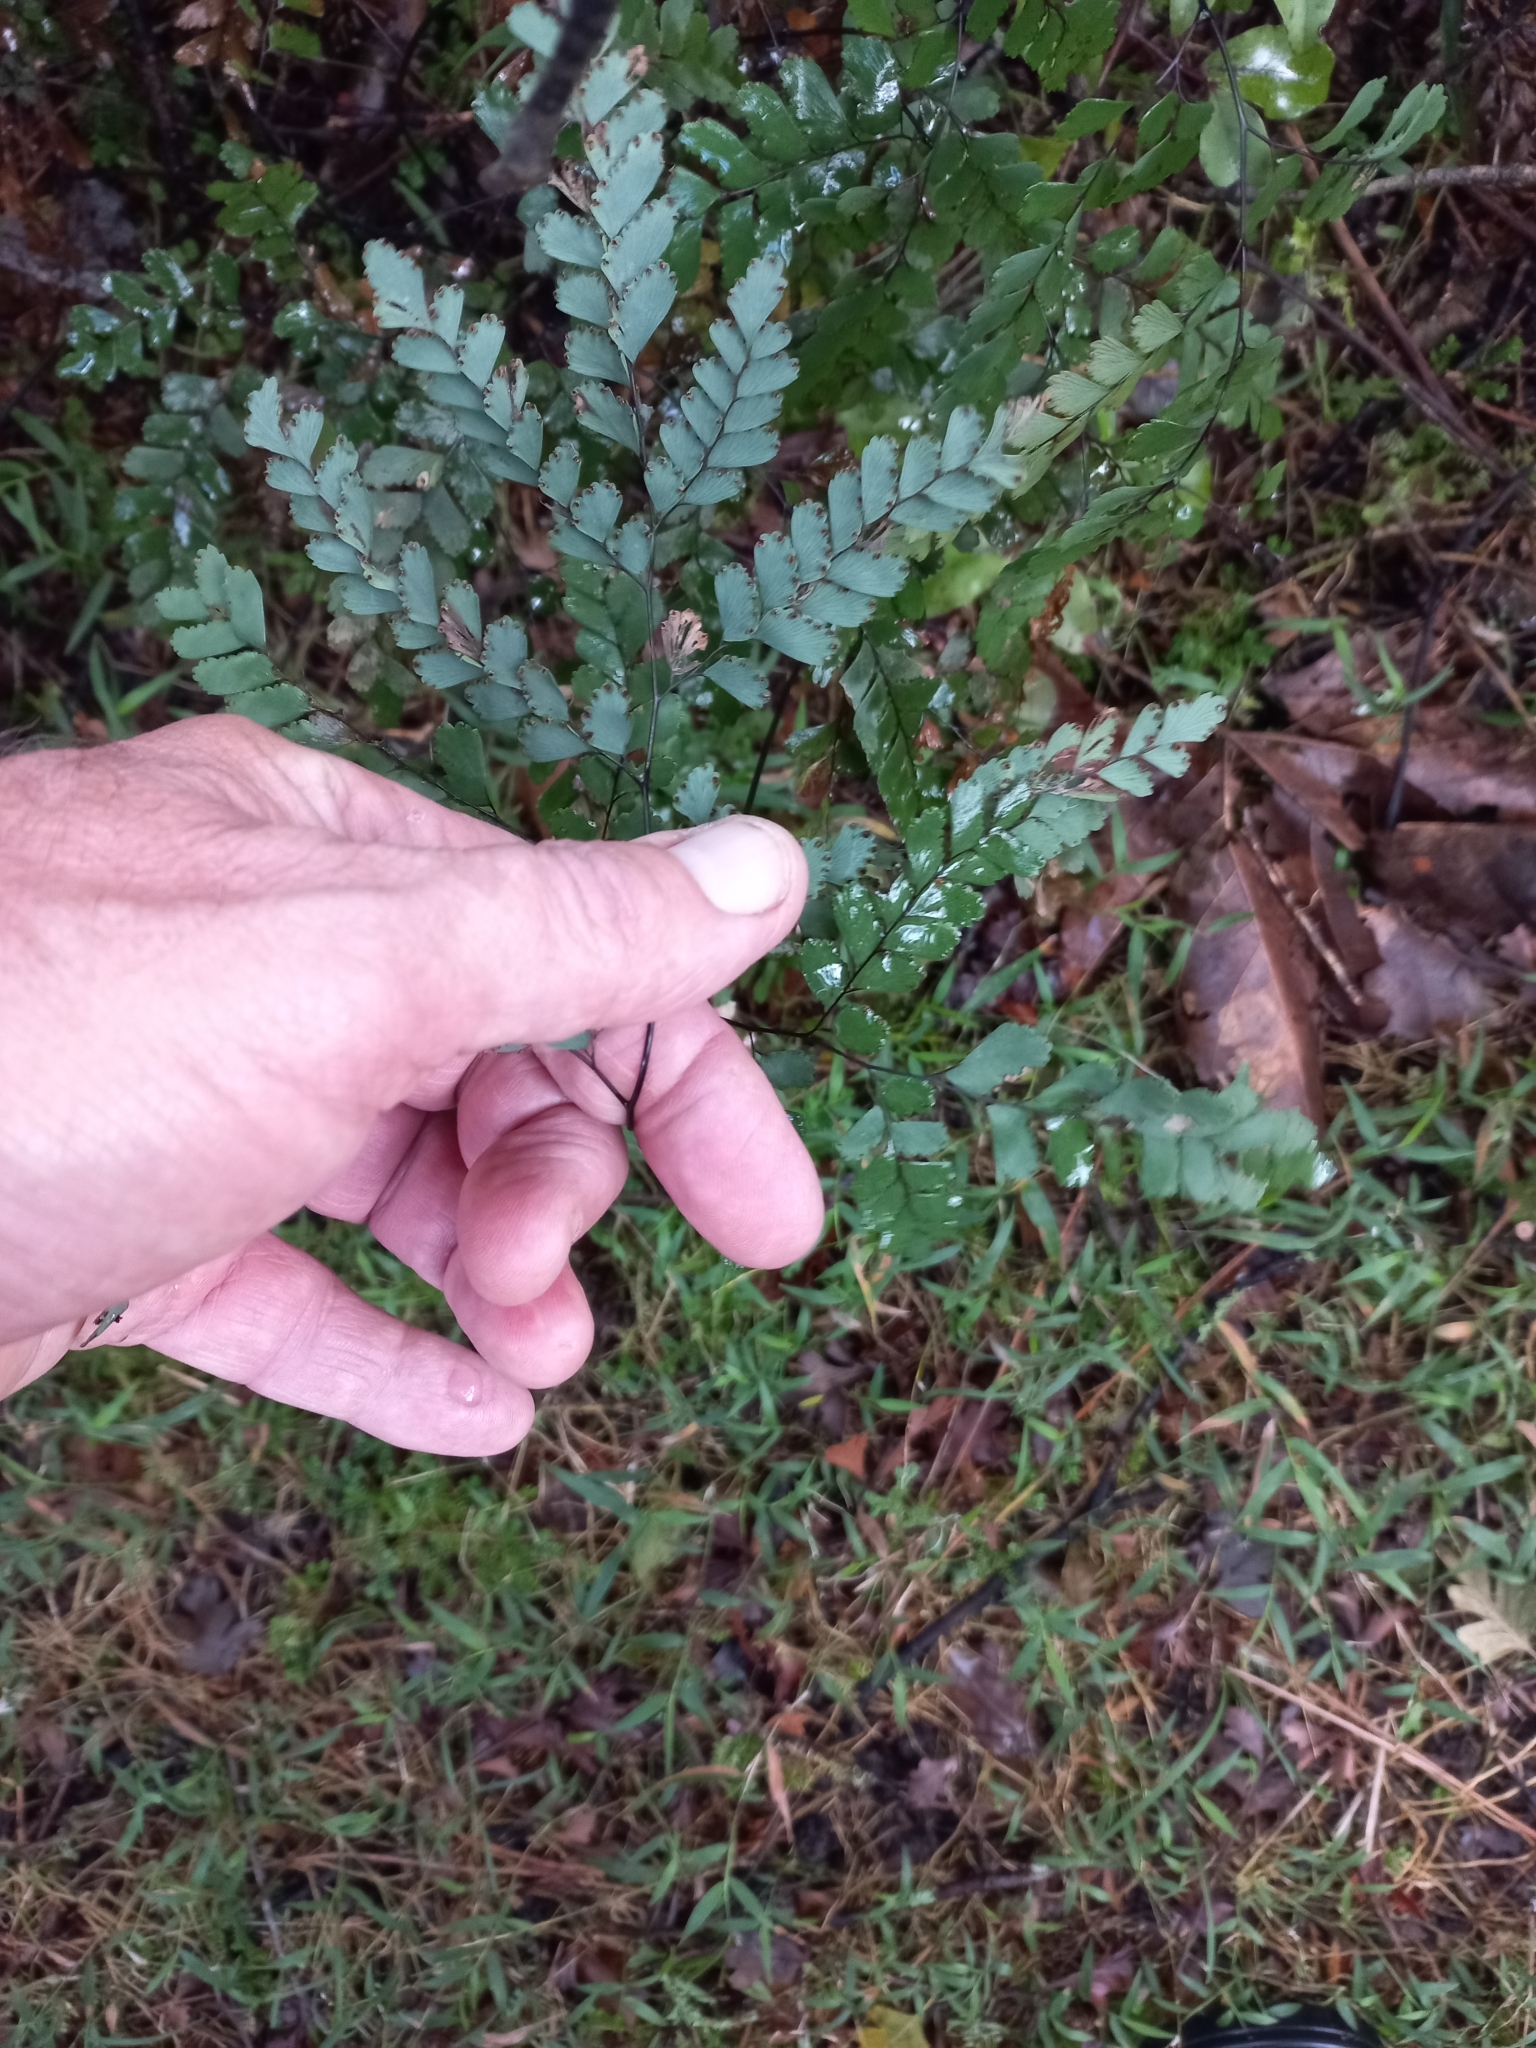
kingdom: Plantae
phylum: Tracheophyta
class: Polypodiopsida
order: Polypodiales
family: Pteridaceae
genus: Adiantum
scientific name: Adiantum cunninghamii
